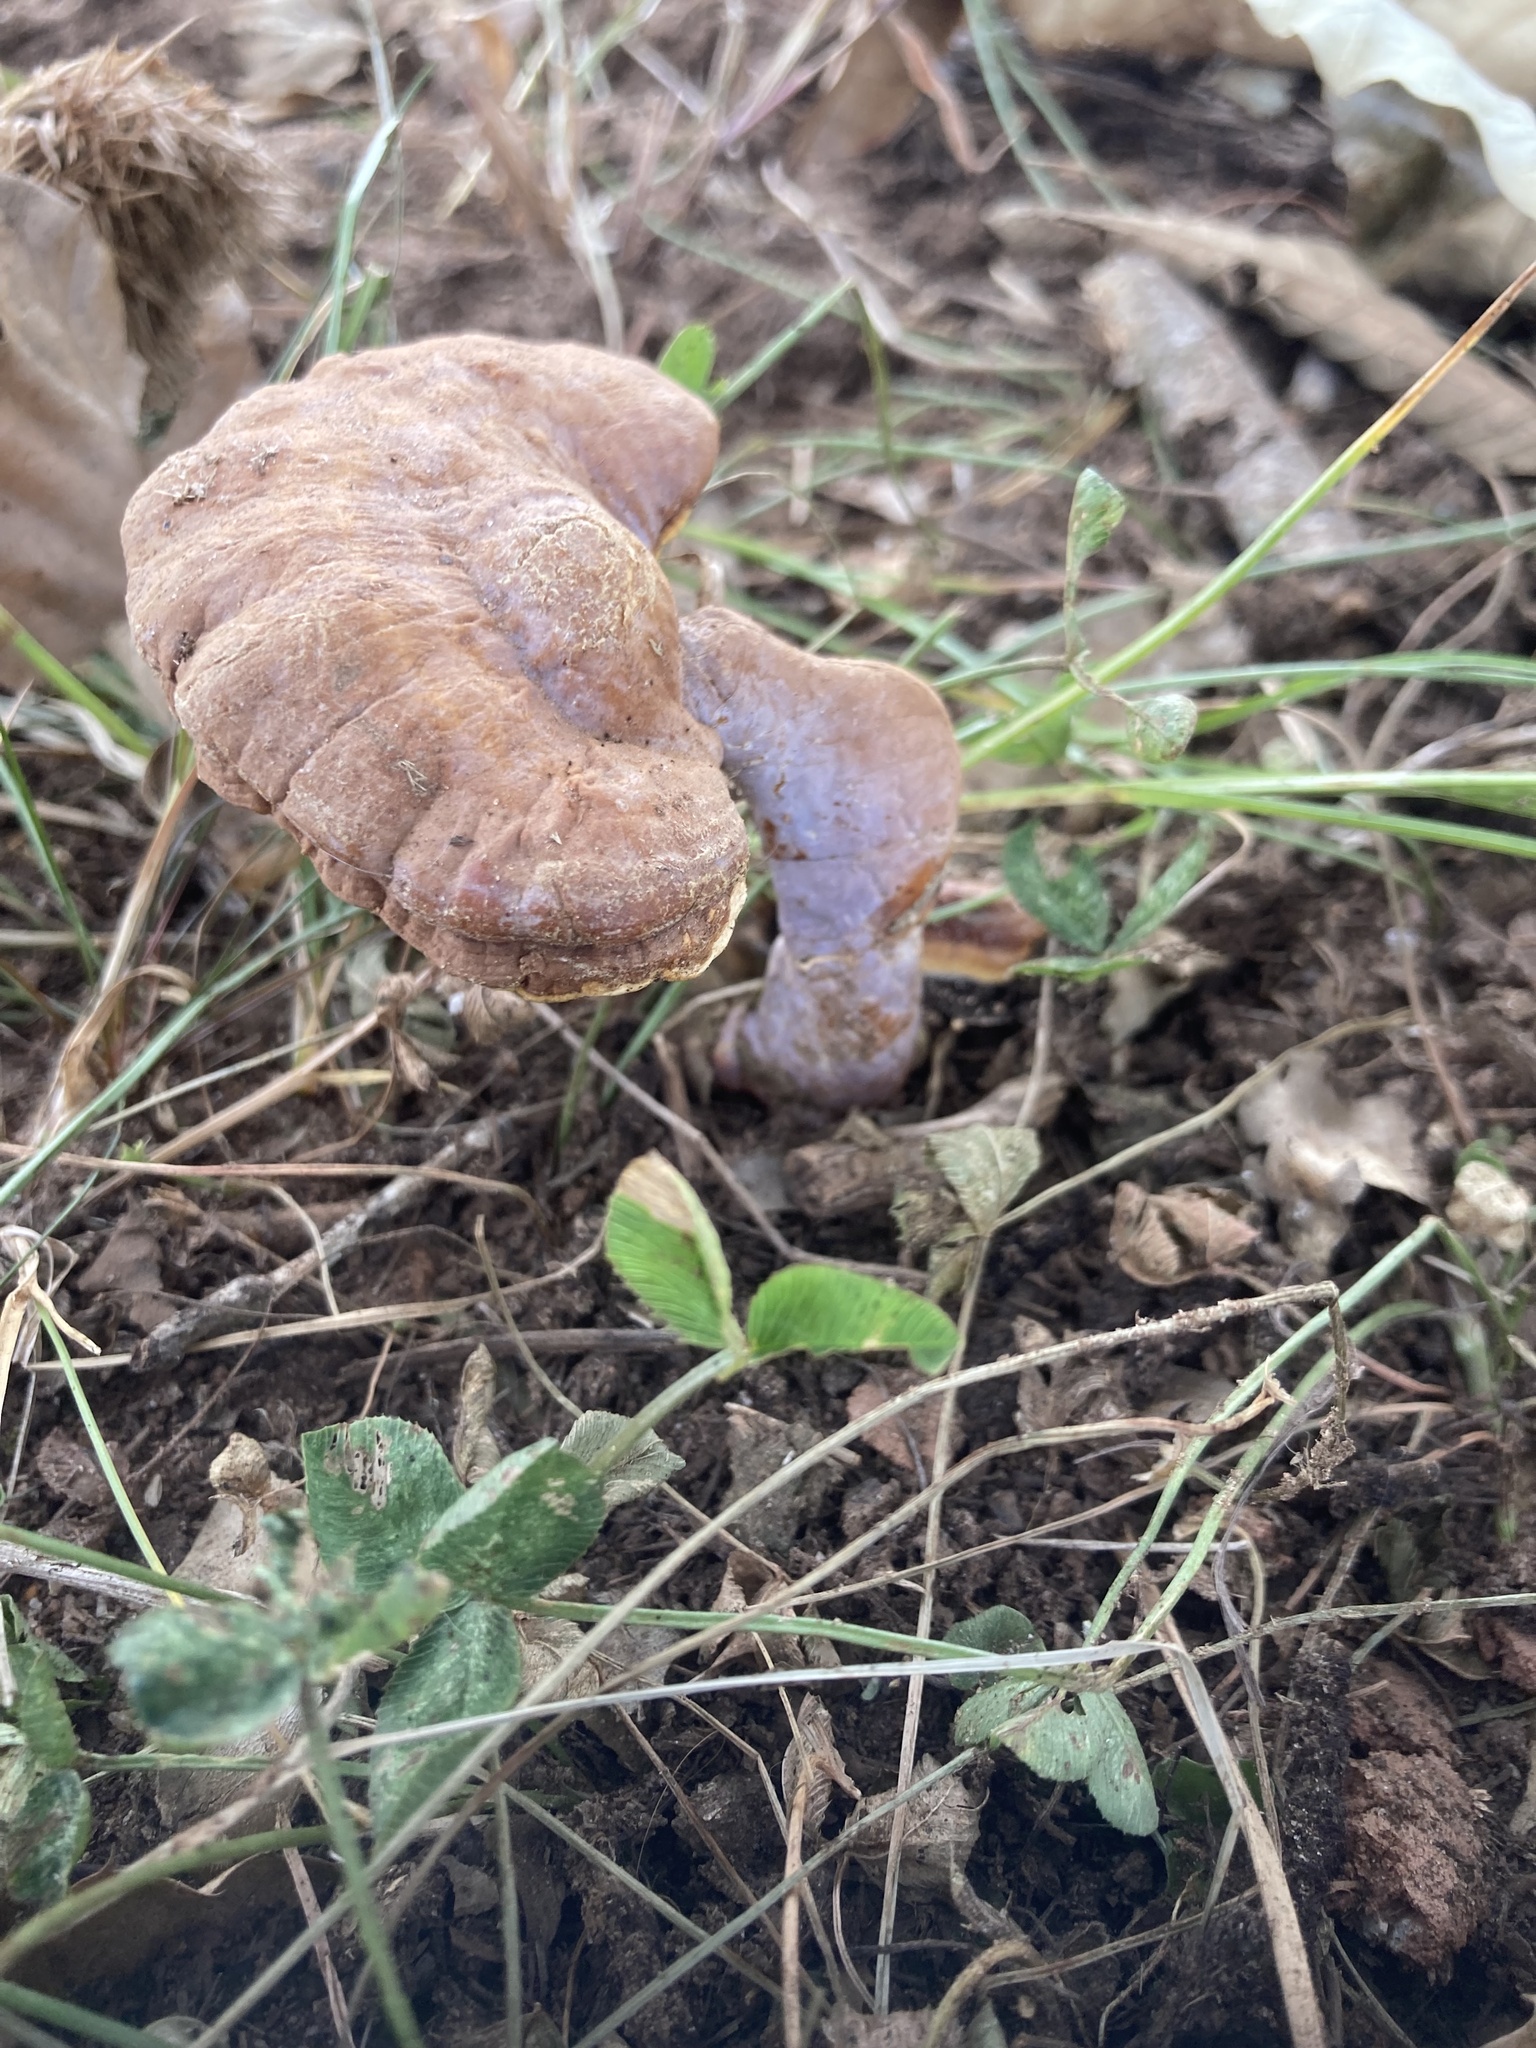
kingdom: Fungi
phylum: Basidiomycota
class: Agaricomycetes
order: Polyporales
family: Polyporaceae
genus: Ganoderma
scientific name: Ganoderma curtisii
